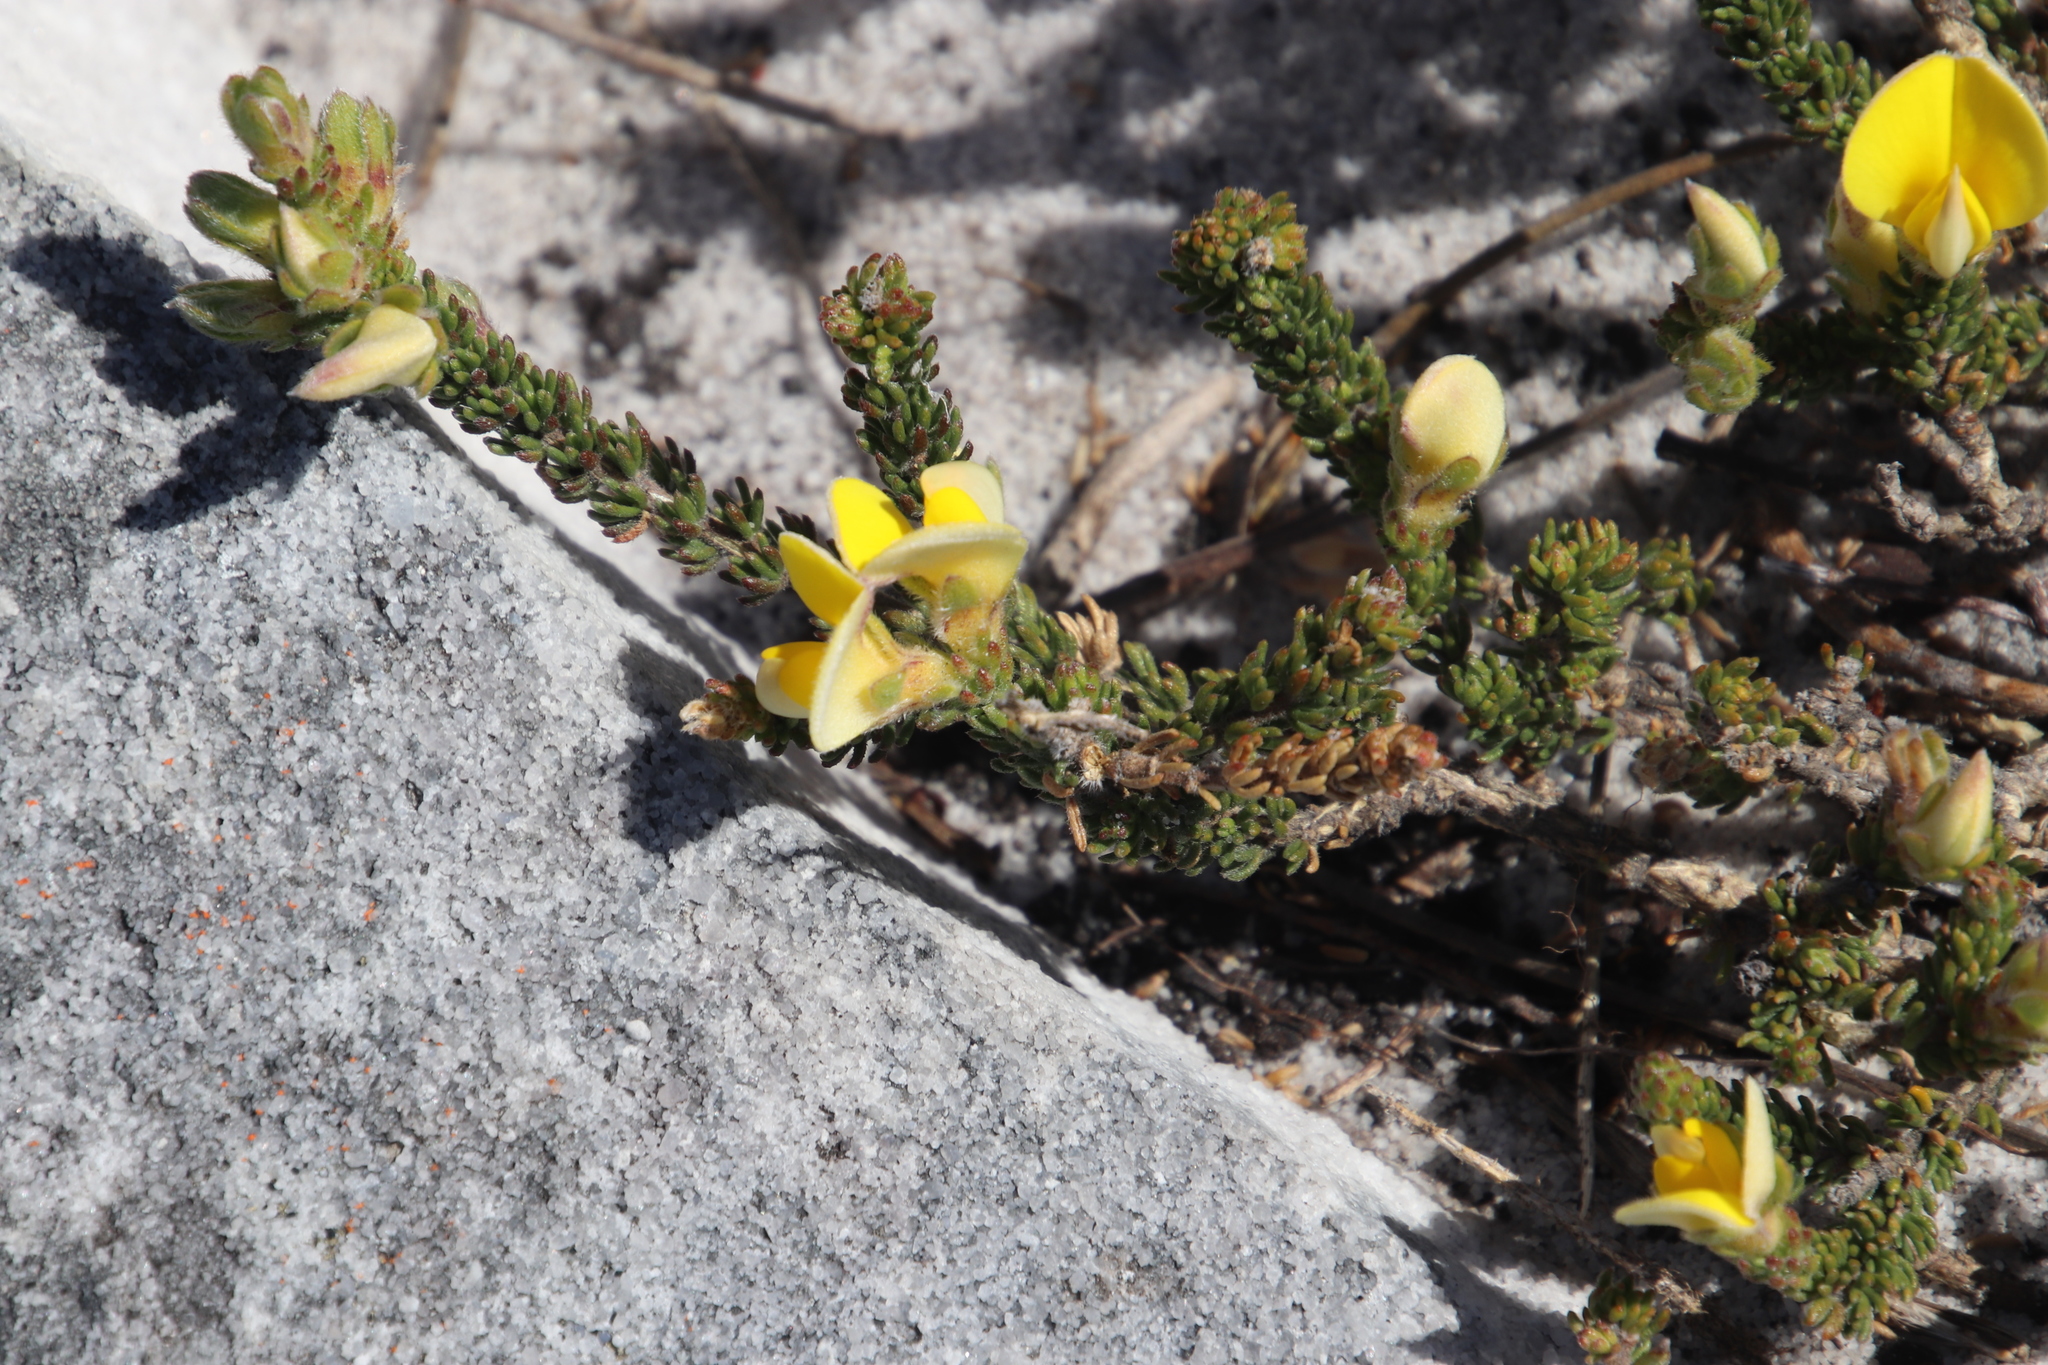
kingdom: Plantae
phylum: Tracheophyta
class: Magnoliopsida
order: Fabales
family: Fabaceae
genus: Aspalathus
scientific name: Aspalathus linguiloba
